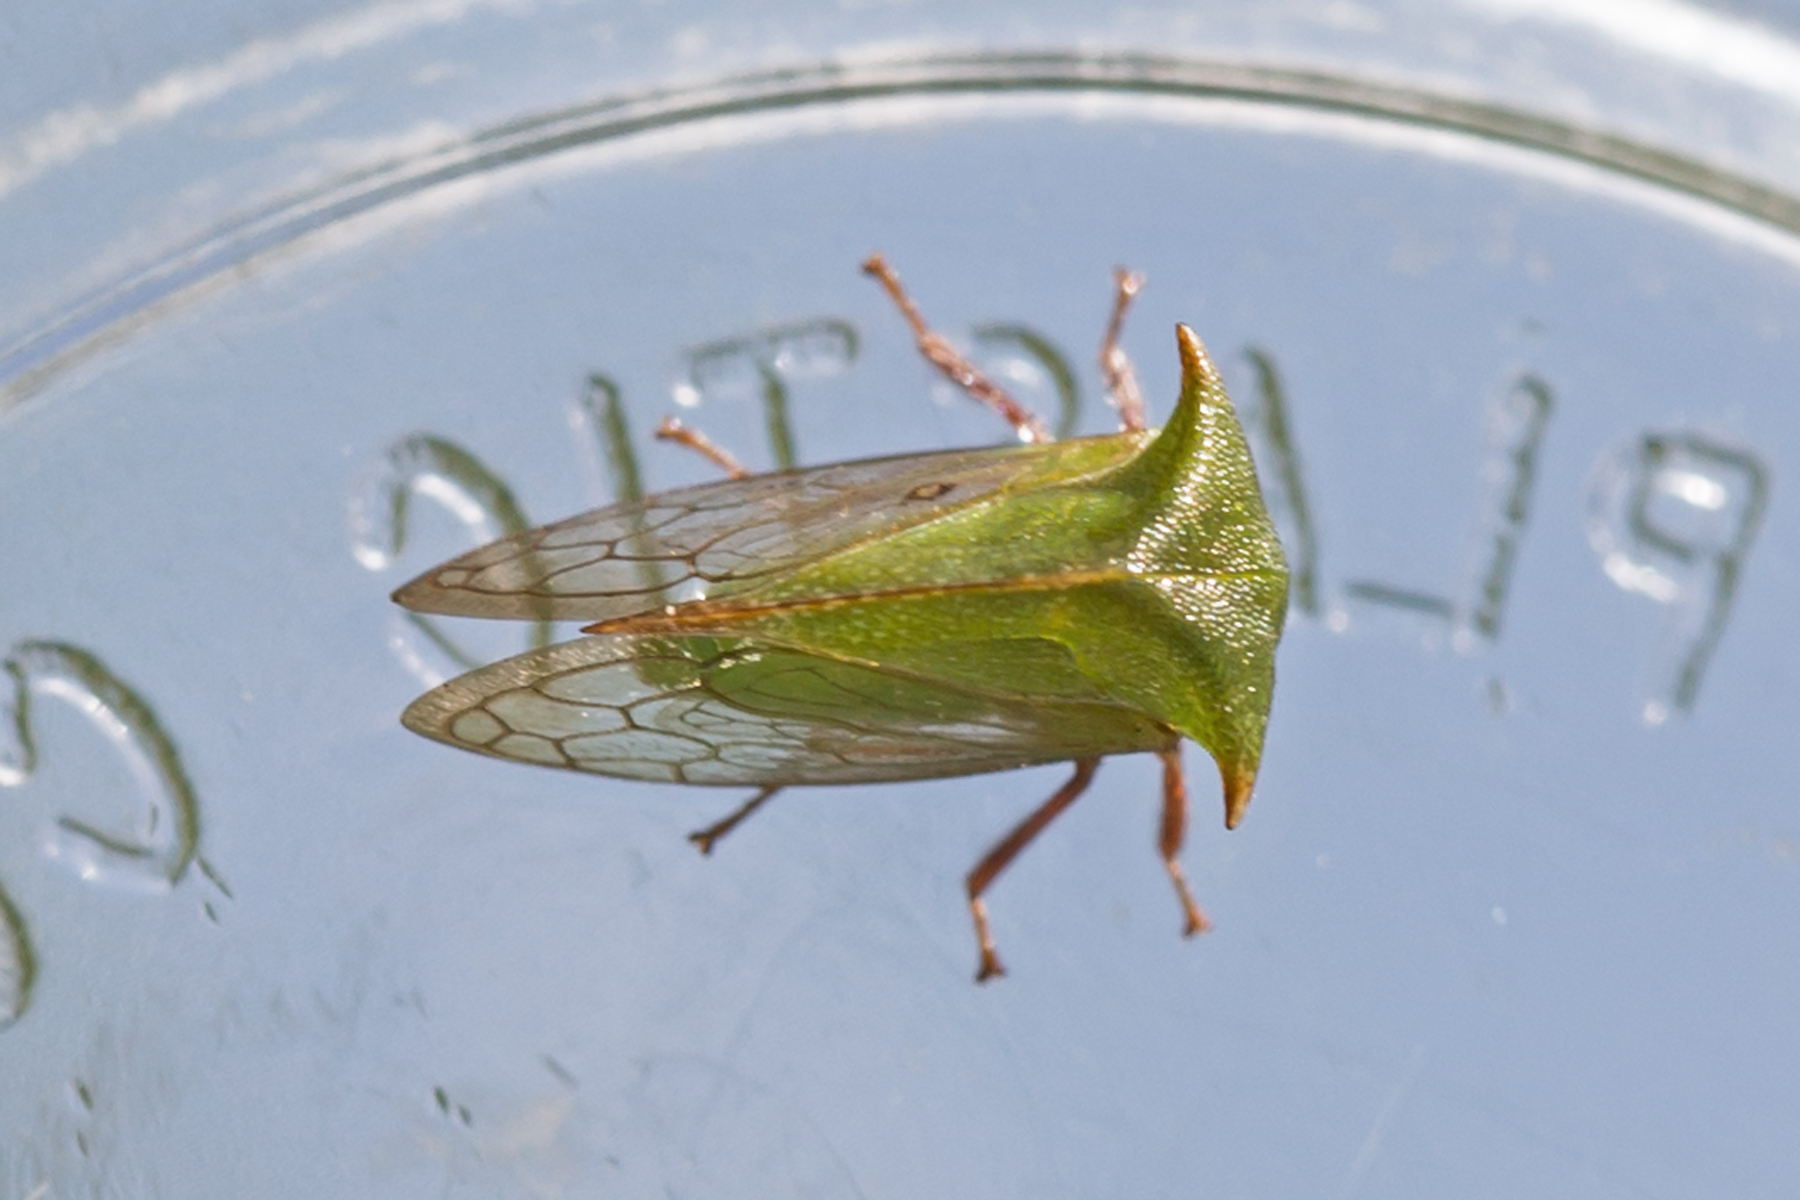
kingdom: Animalia
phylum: Arthropoda
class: Insecta
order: Hemiptera
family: Membracidae
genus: Stictocephala
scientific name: Stictocephala brevitylus
